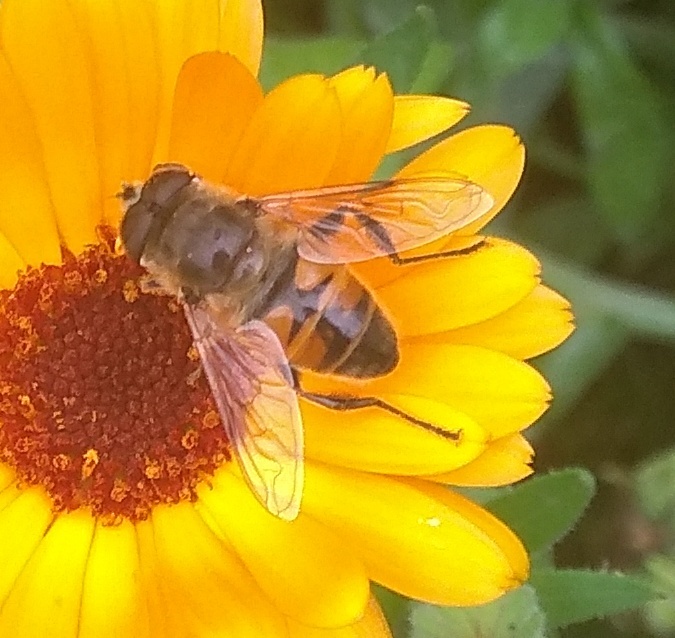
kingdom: Animalia
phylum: Arthropoda
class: Insecta
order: Diptera
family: Syrphidae
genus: Eristalis
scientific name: Eristalis tenax
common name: Drone fly
